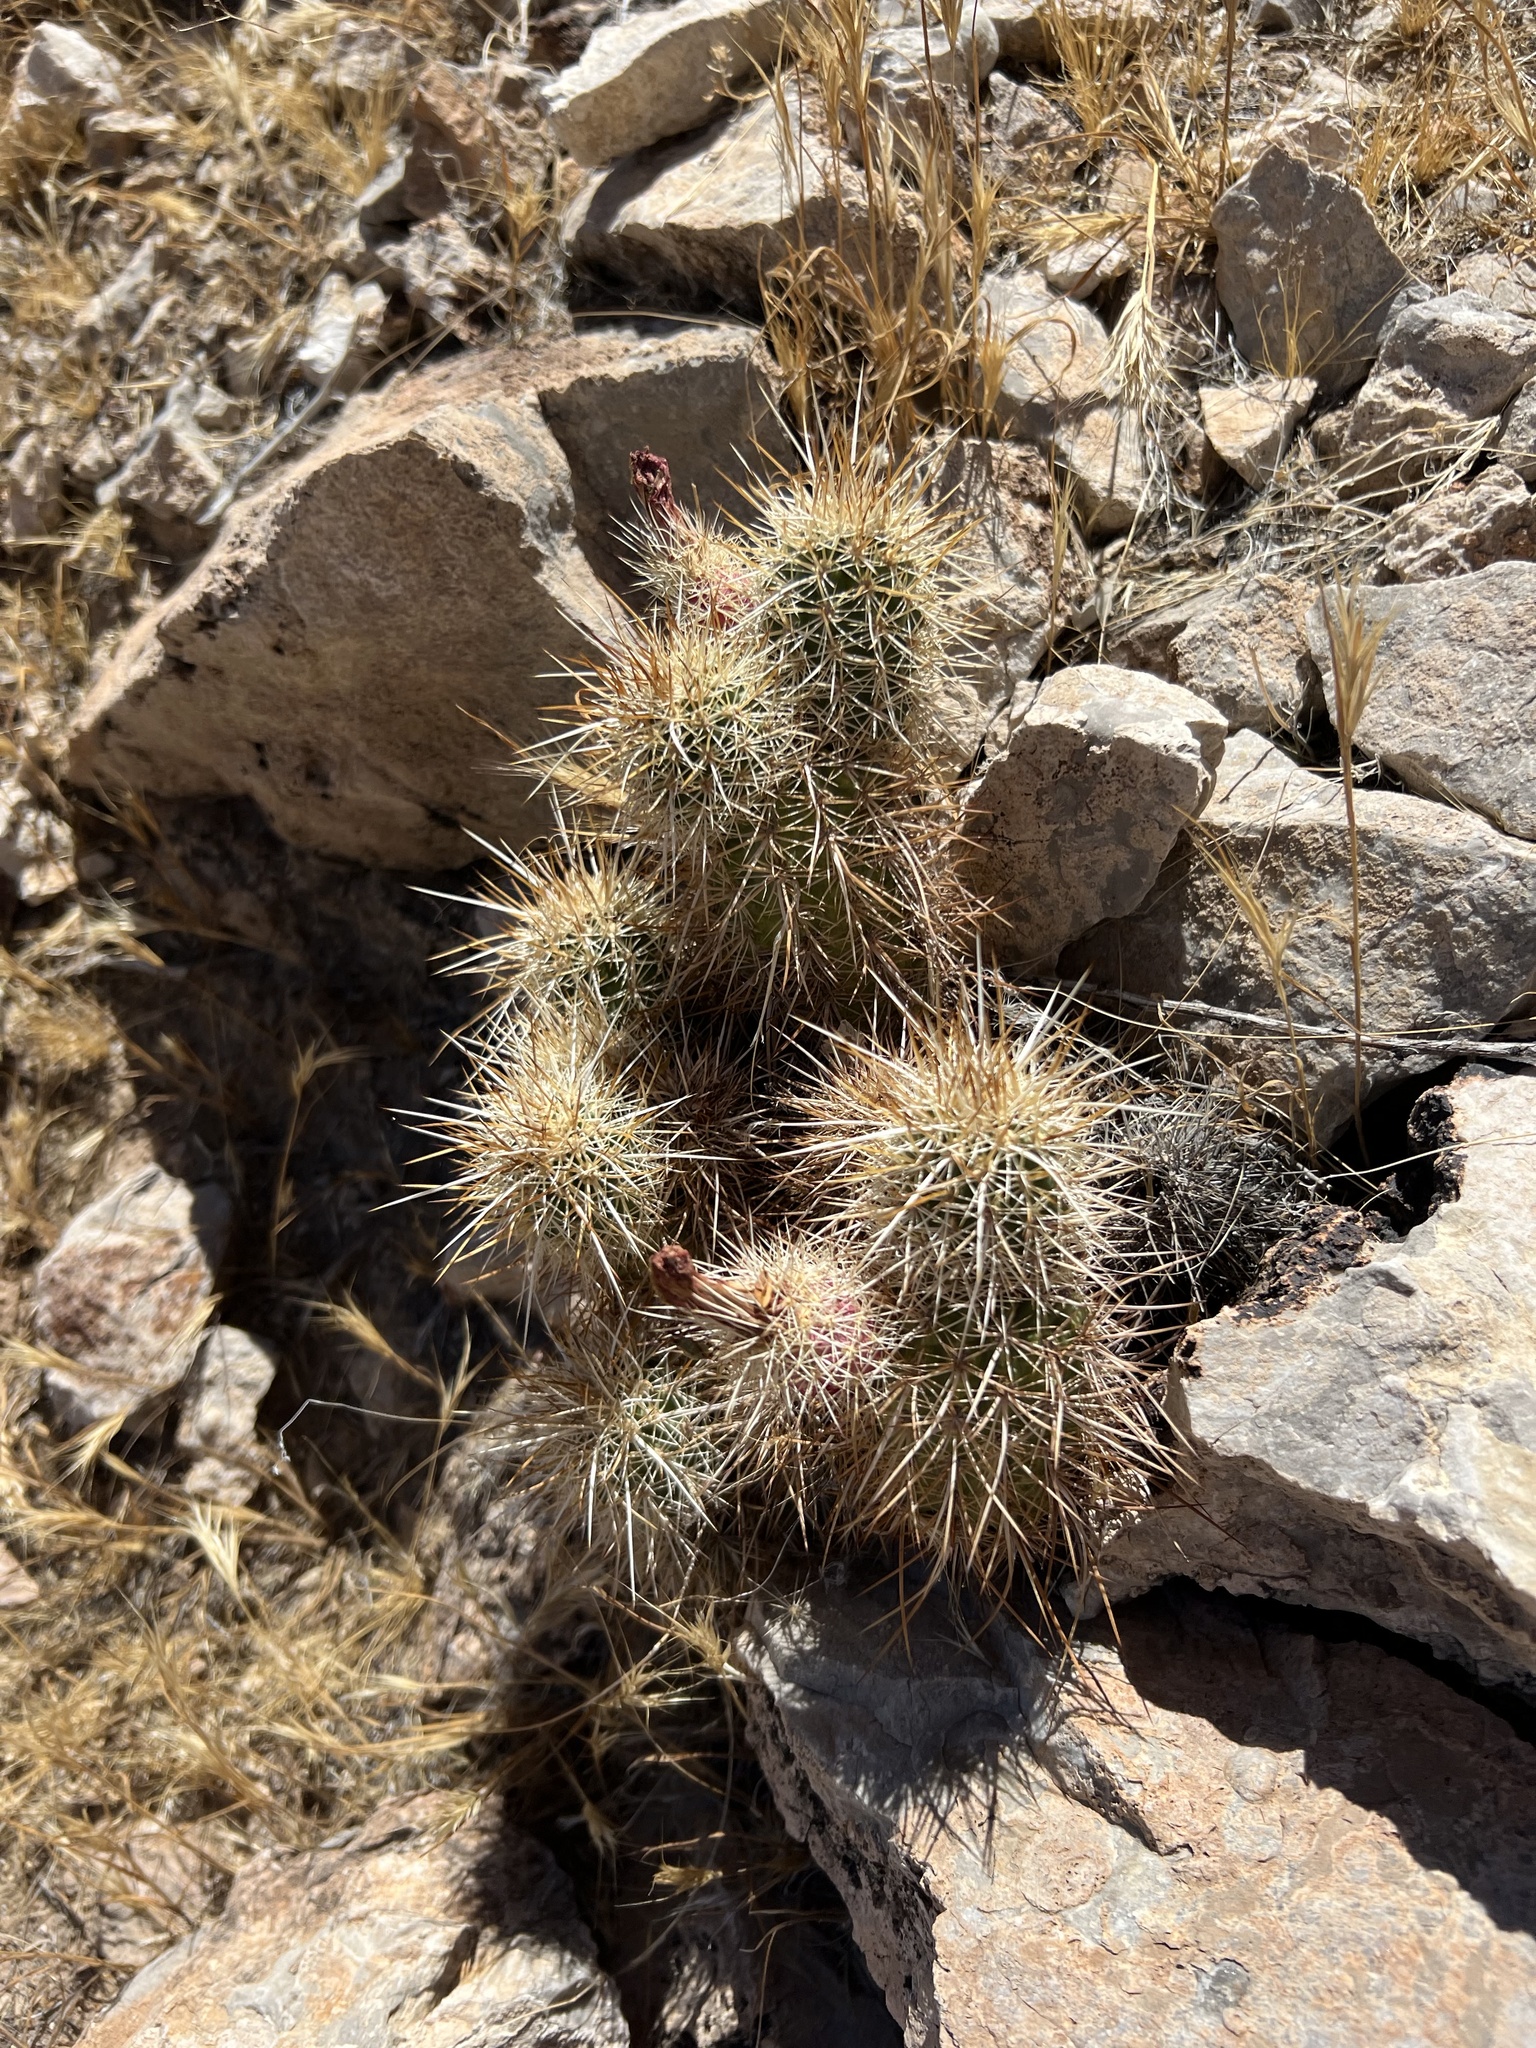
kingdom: Plantae
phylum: Tracheophyta
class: Magnoliopsida
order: Caryophyllales
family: Cactaceae
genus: Echinocereus
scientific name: Echinocereus engelmannii
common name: Engelmann's hedgehog cactus
